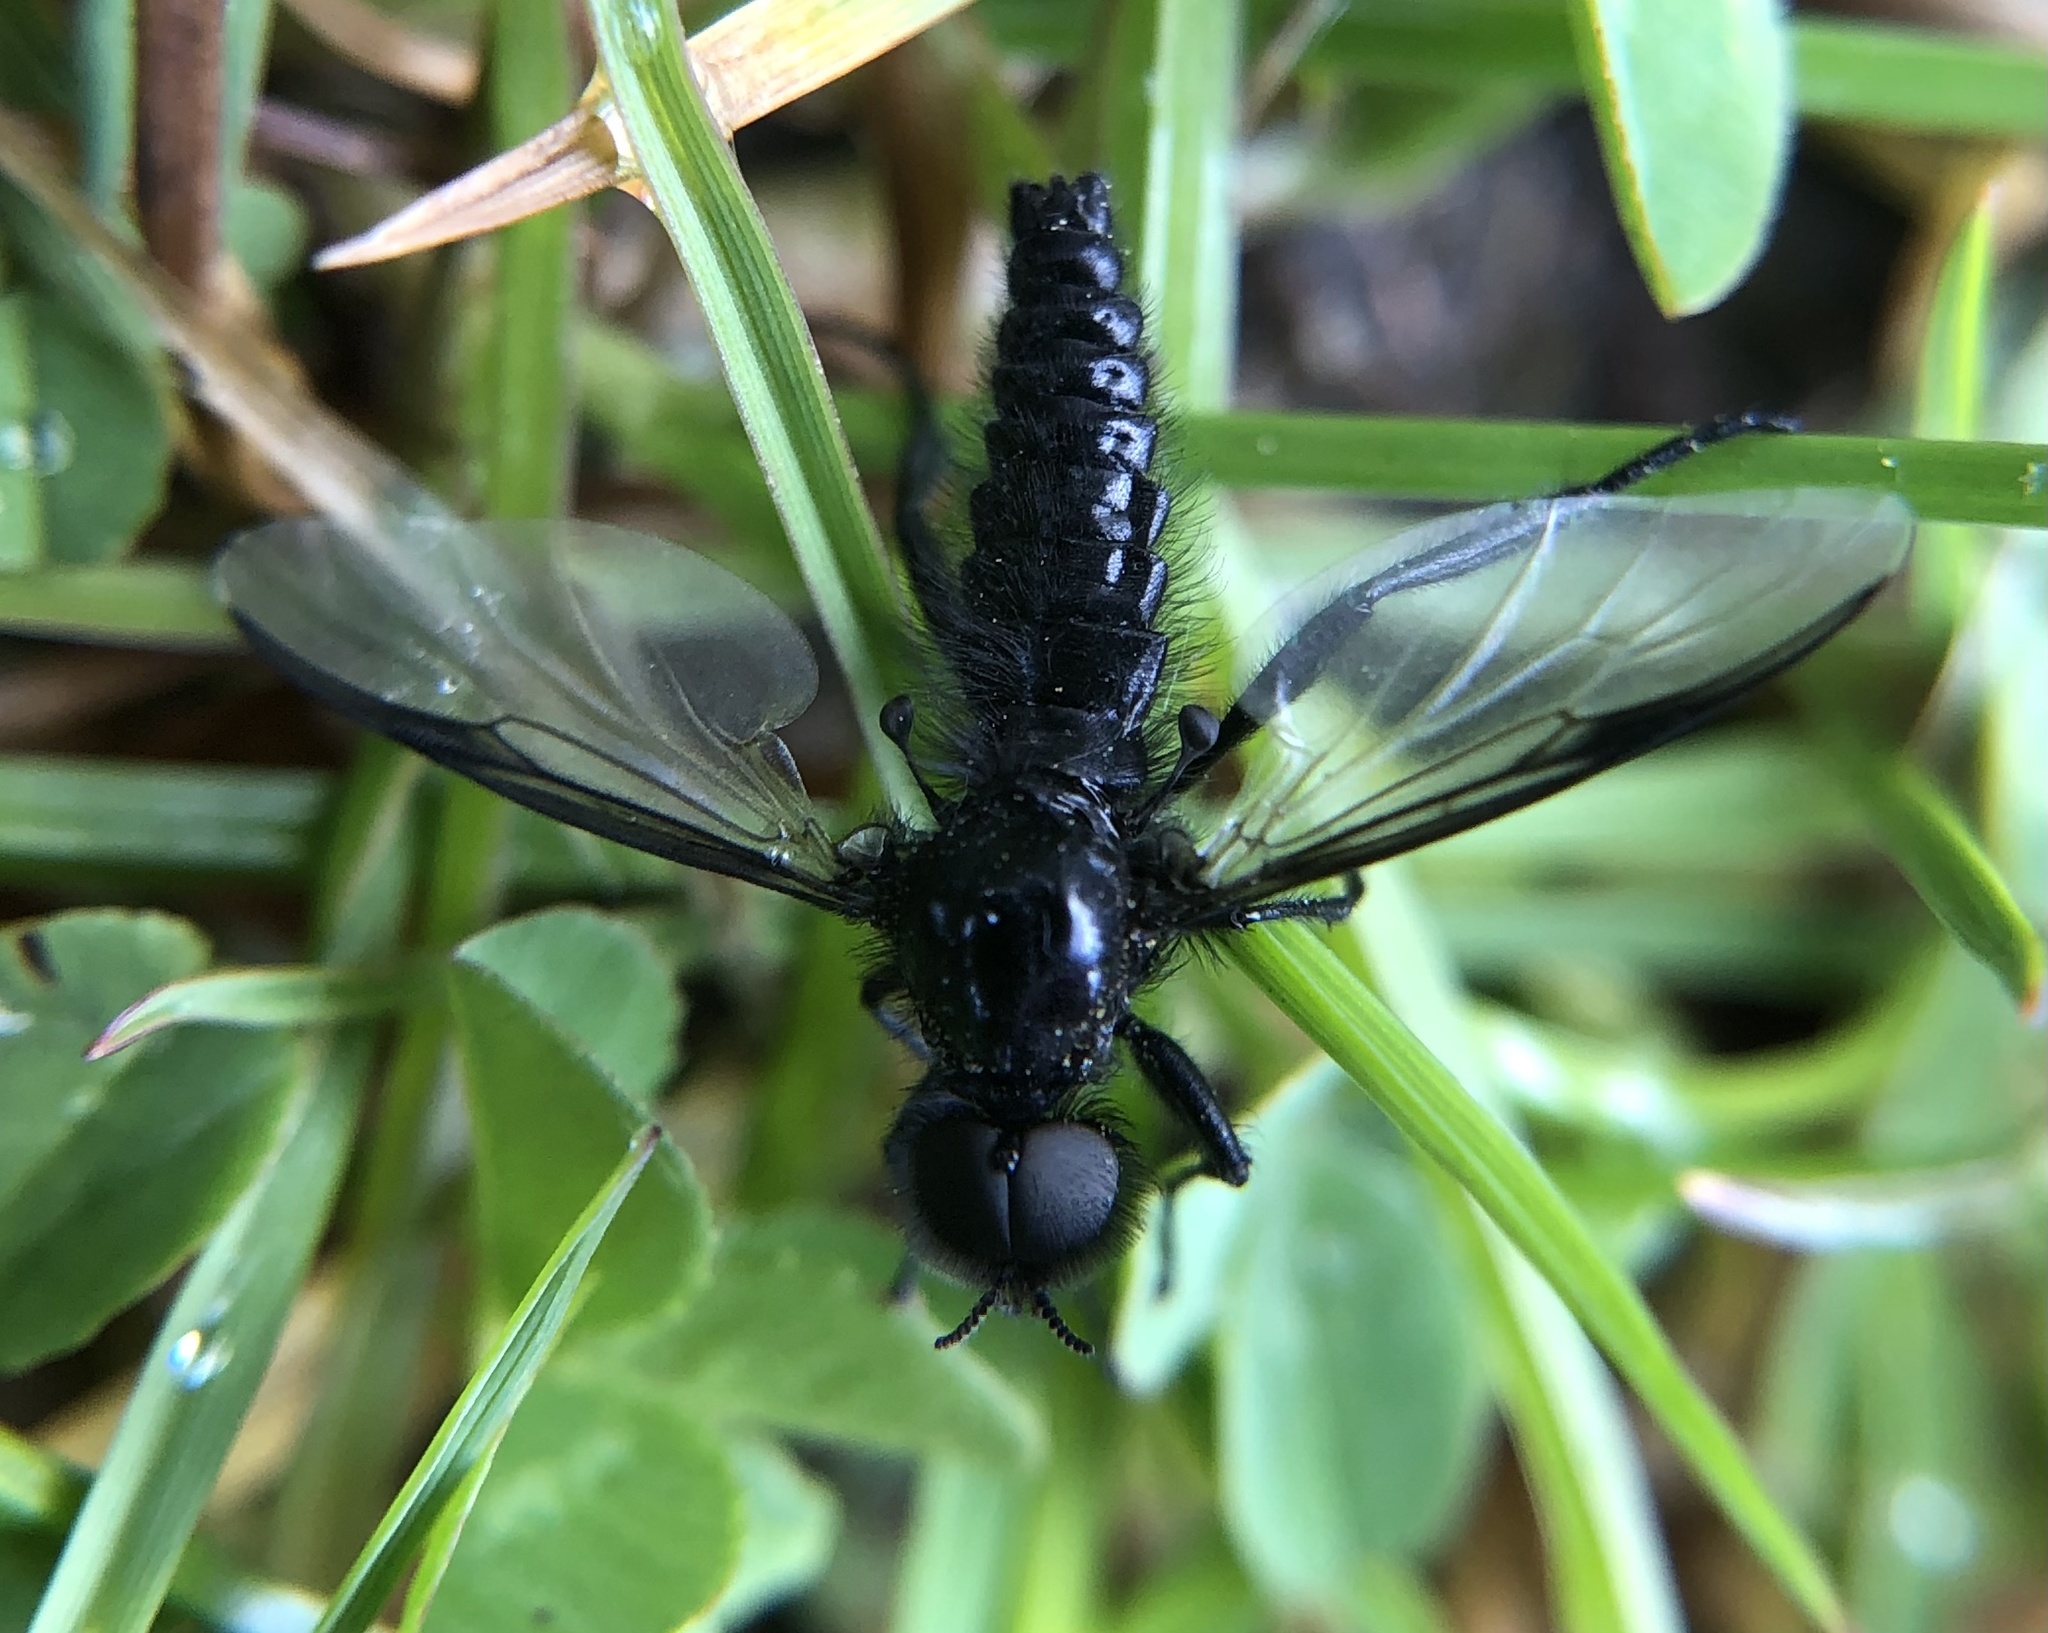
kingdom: Animalia
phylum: Arthropoda
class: Insecta
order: Diptera
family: Bibionidae
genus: Bibio
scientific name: Bibio marci
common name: St marks fly
